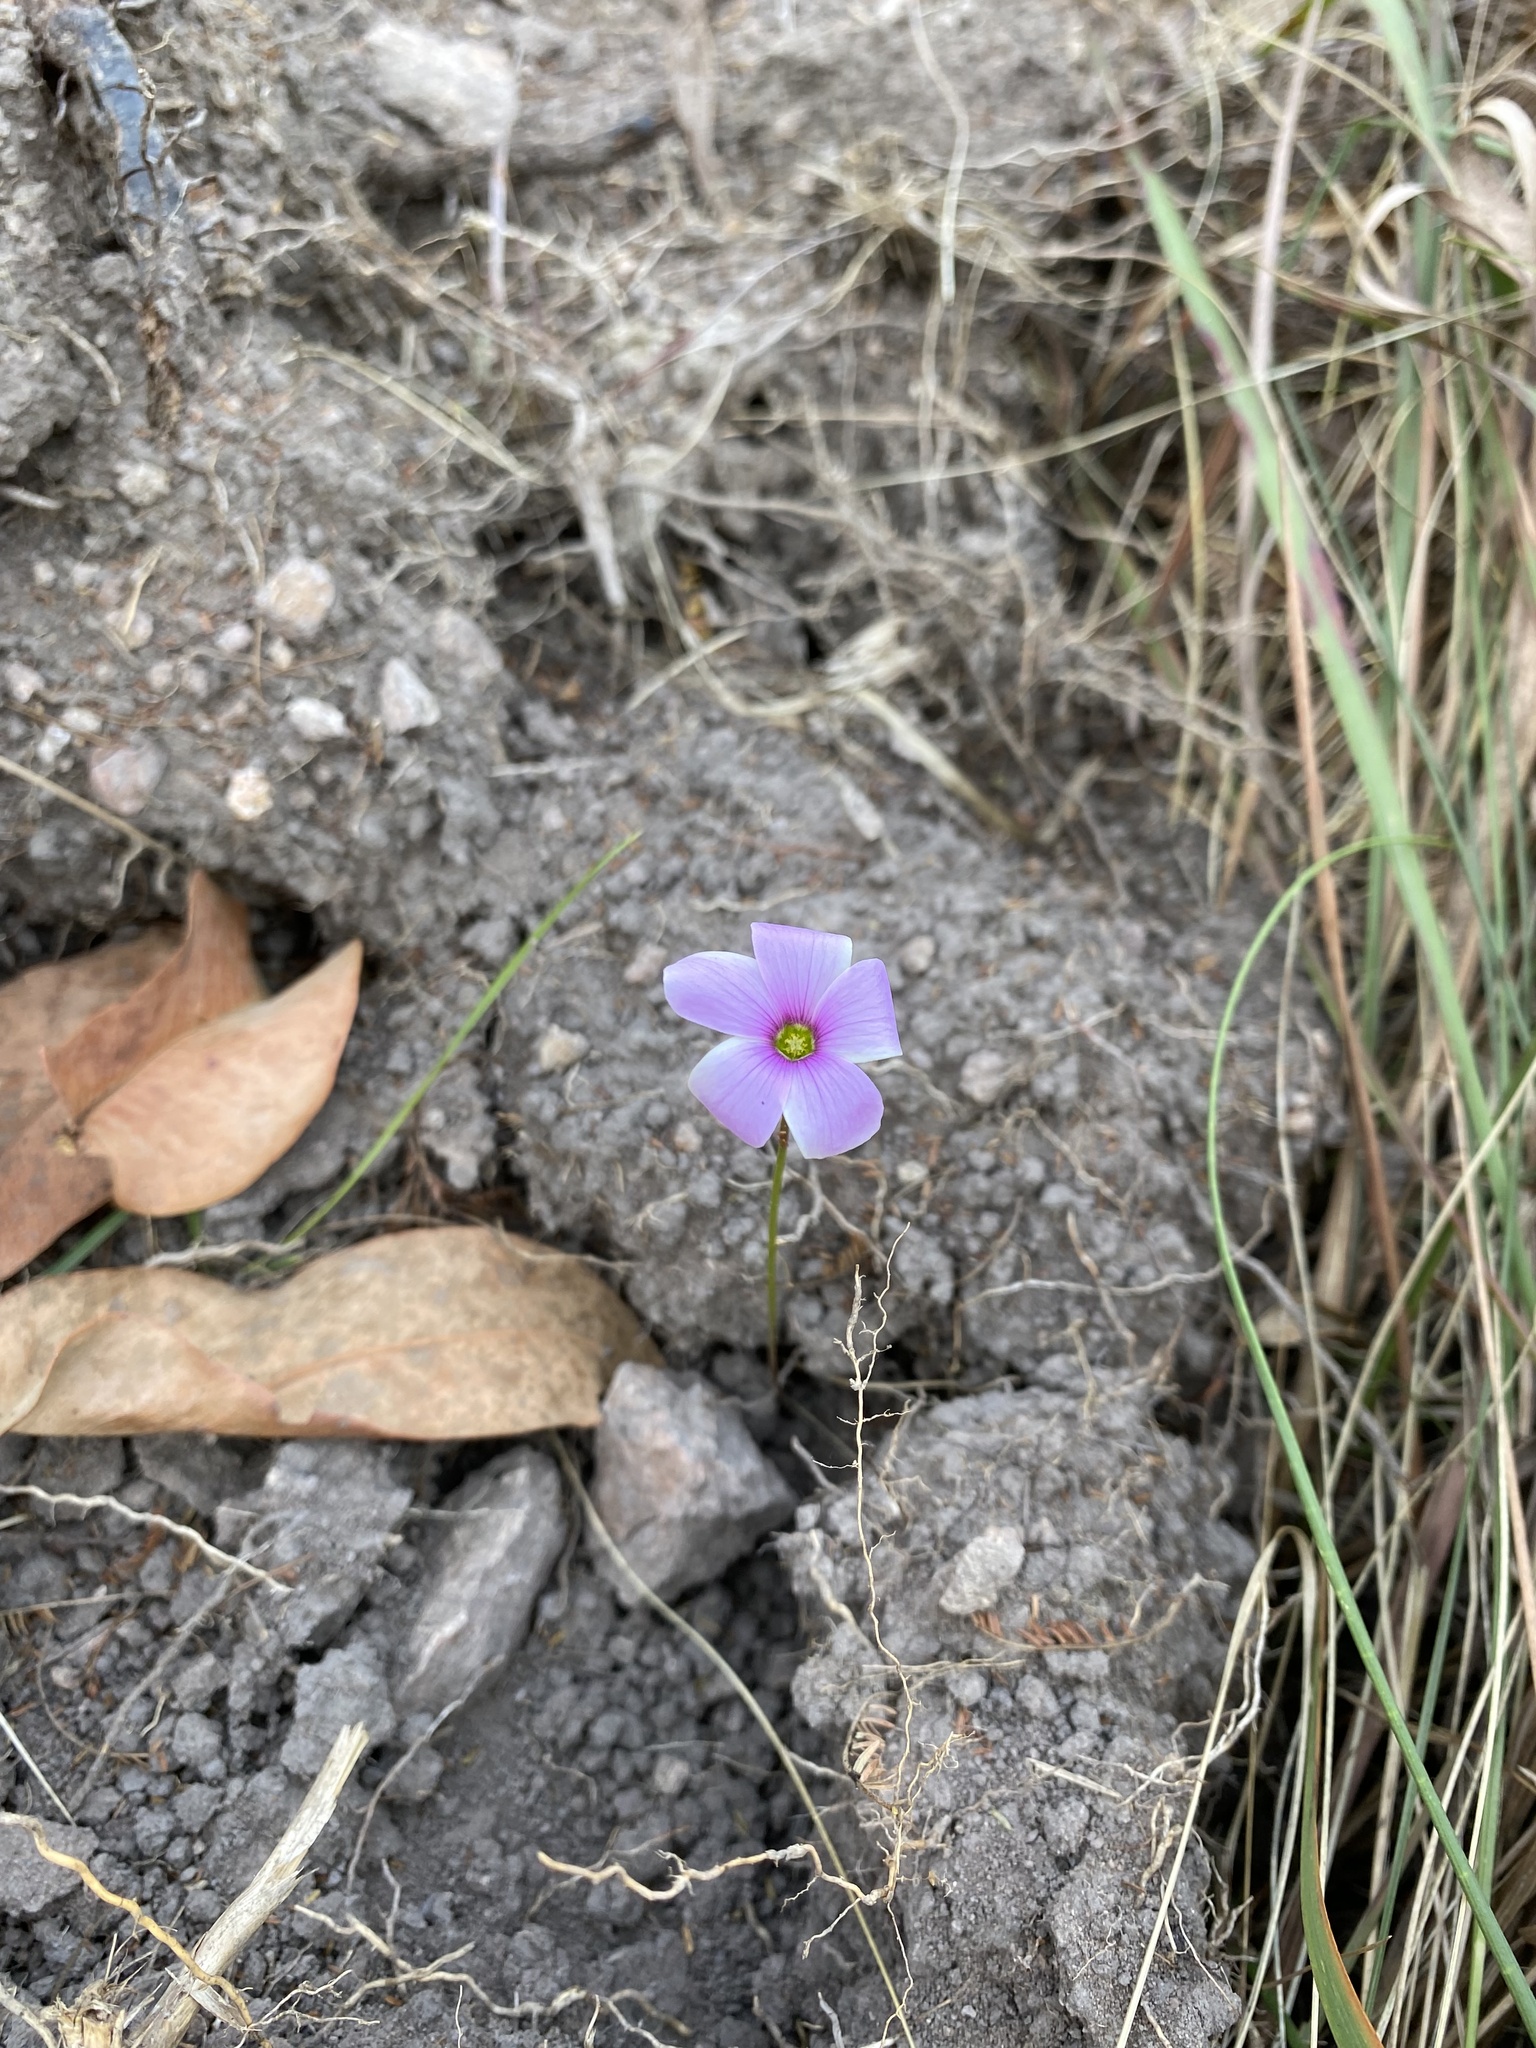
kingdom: Plantae
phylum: Tracheophyta
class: Magnoliopsida
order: Oxalidales
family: Oxalidaceae
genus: Oxalis
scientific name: Oxalis smithiana
